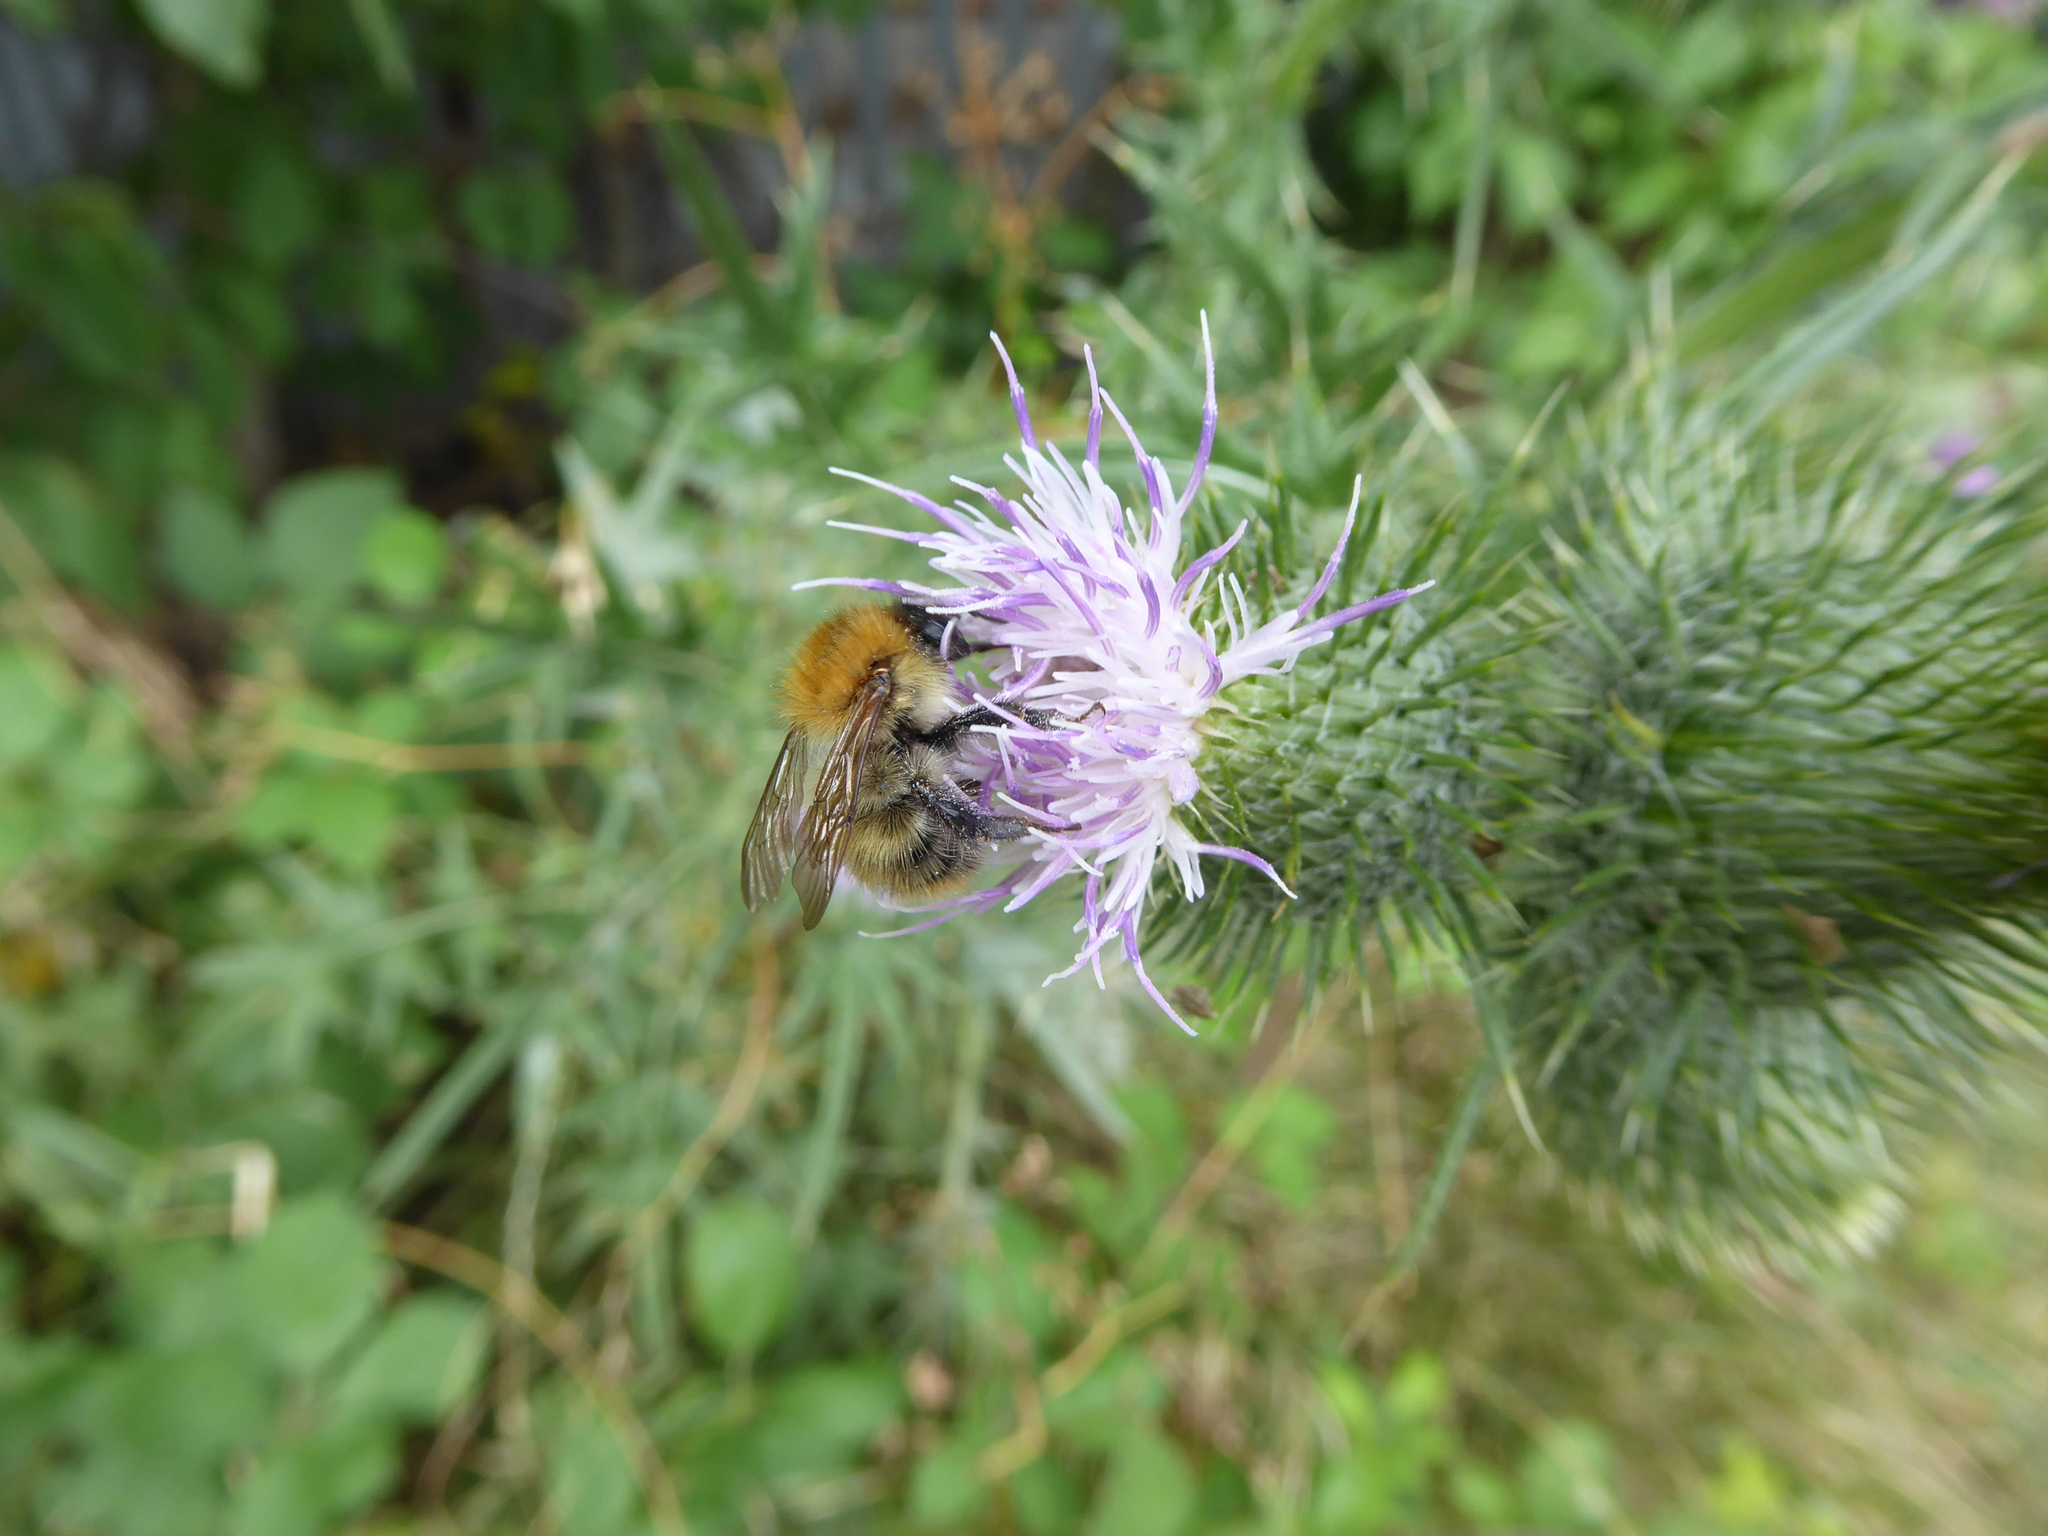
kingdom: Animalia
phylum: Arthropoda
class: Insecta
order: Hymenoptera
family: Apidae
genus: Bombus
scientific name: Bombus pascuorum
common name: Common carder bee
